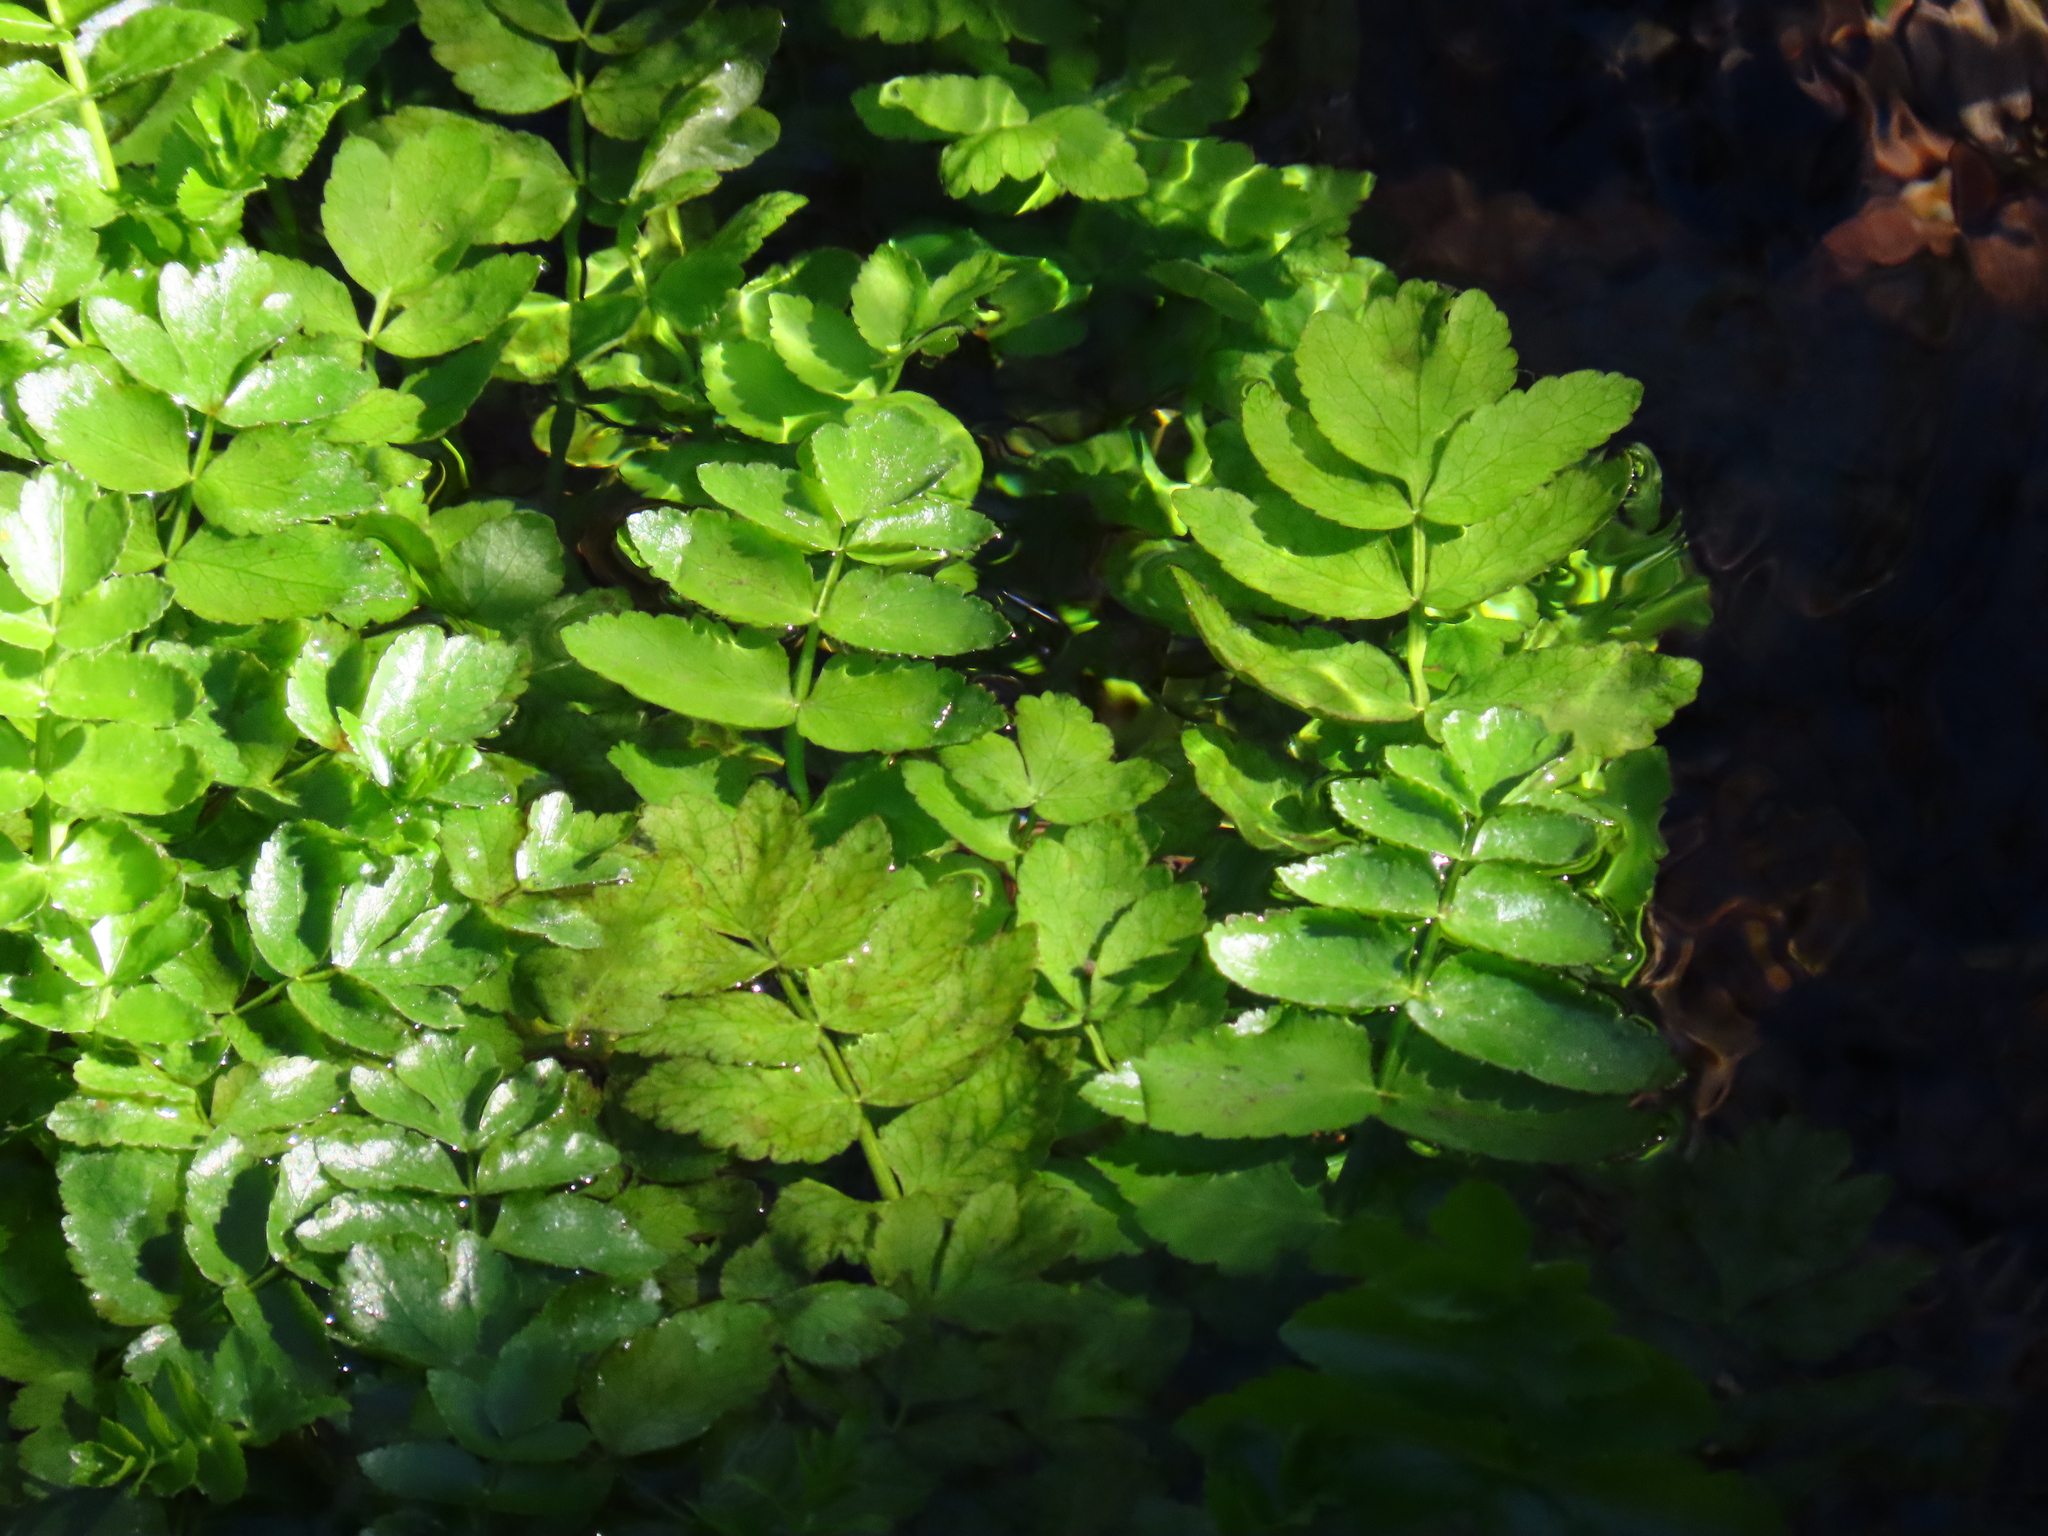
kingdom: Plantae
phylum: Tracheophyta
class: Magnoliopsida
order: Apiales
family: Apiaceae
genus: Helosciadium
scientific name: Helosciadium nodiflorum
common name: Fool's-watercress
